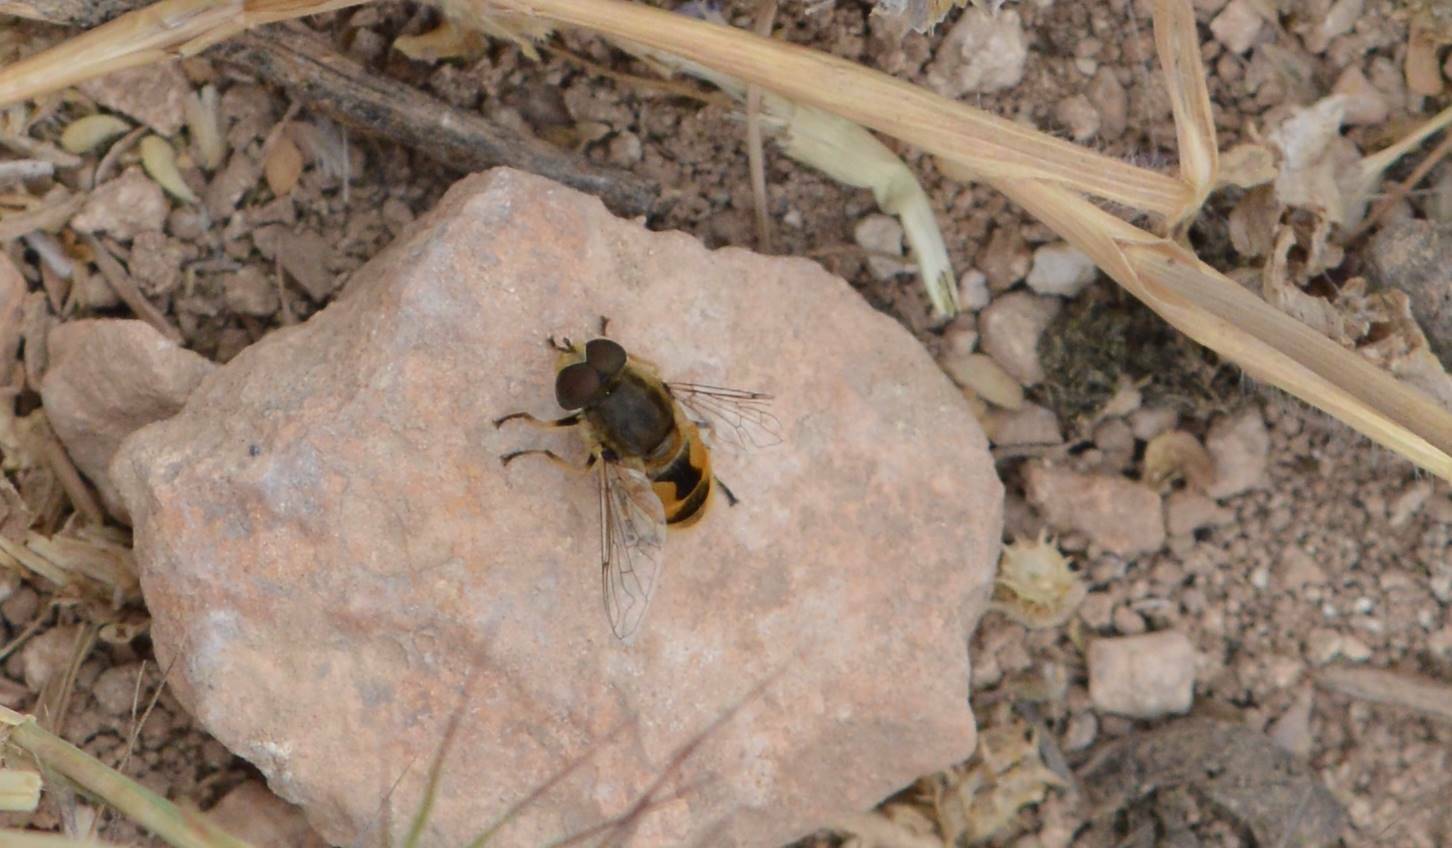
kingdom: Animalia
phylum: Arthropoda
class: Insecta
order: Diptera
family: Syrphidae
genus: Eristalis
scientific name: Eristalis arbustorum
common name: Hover fly
